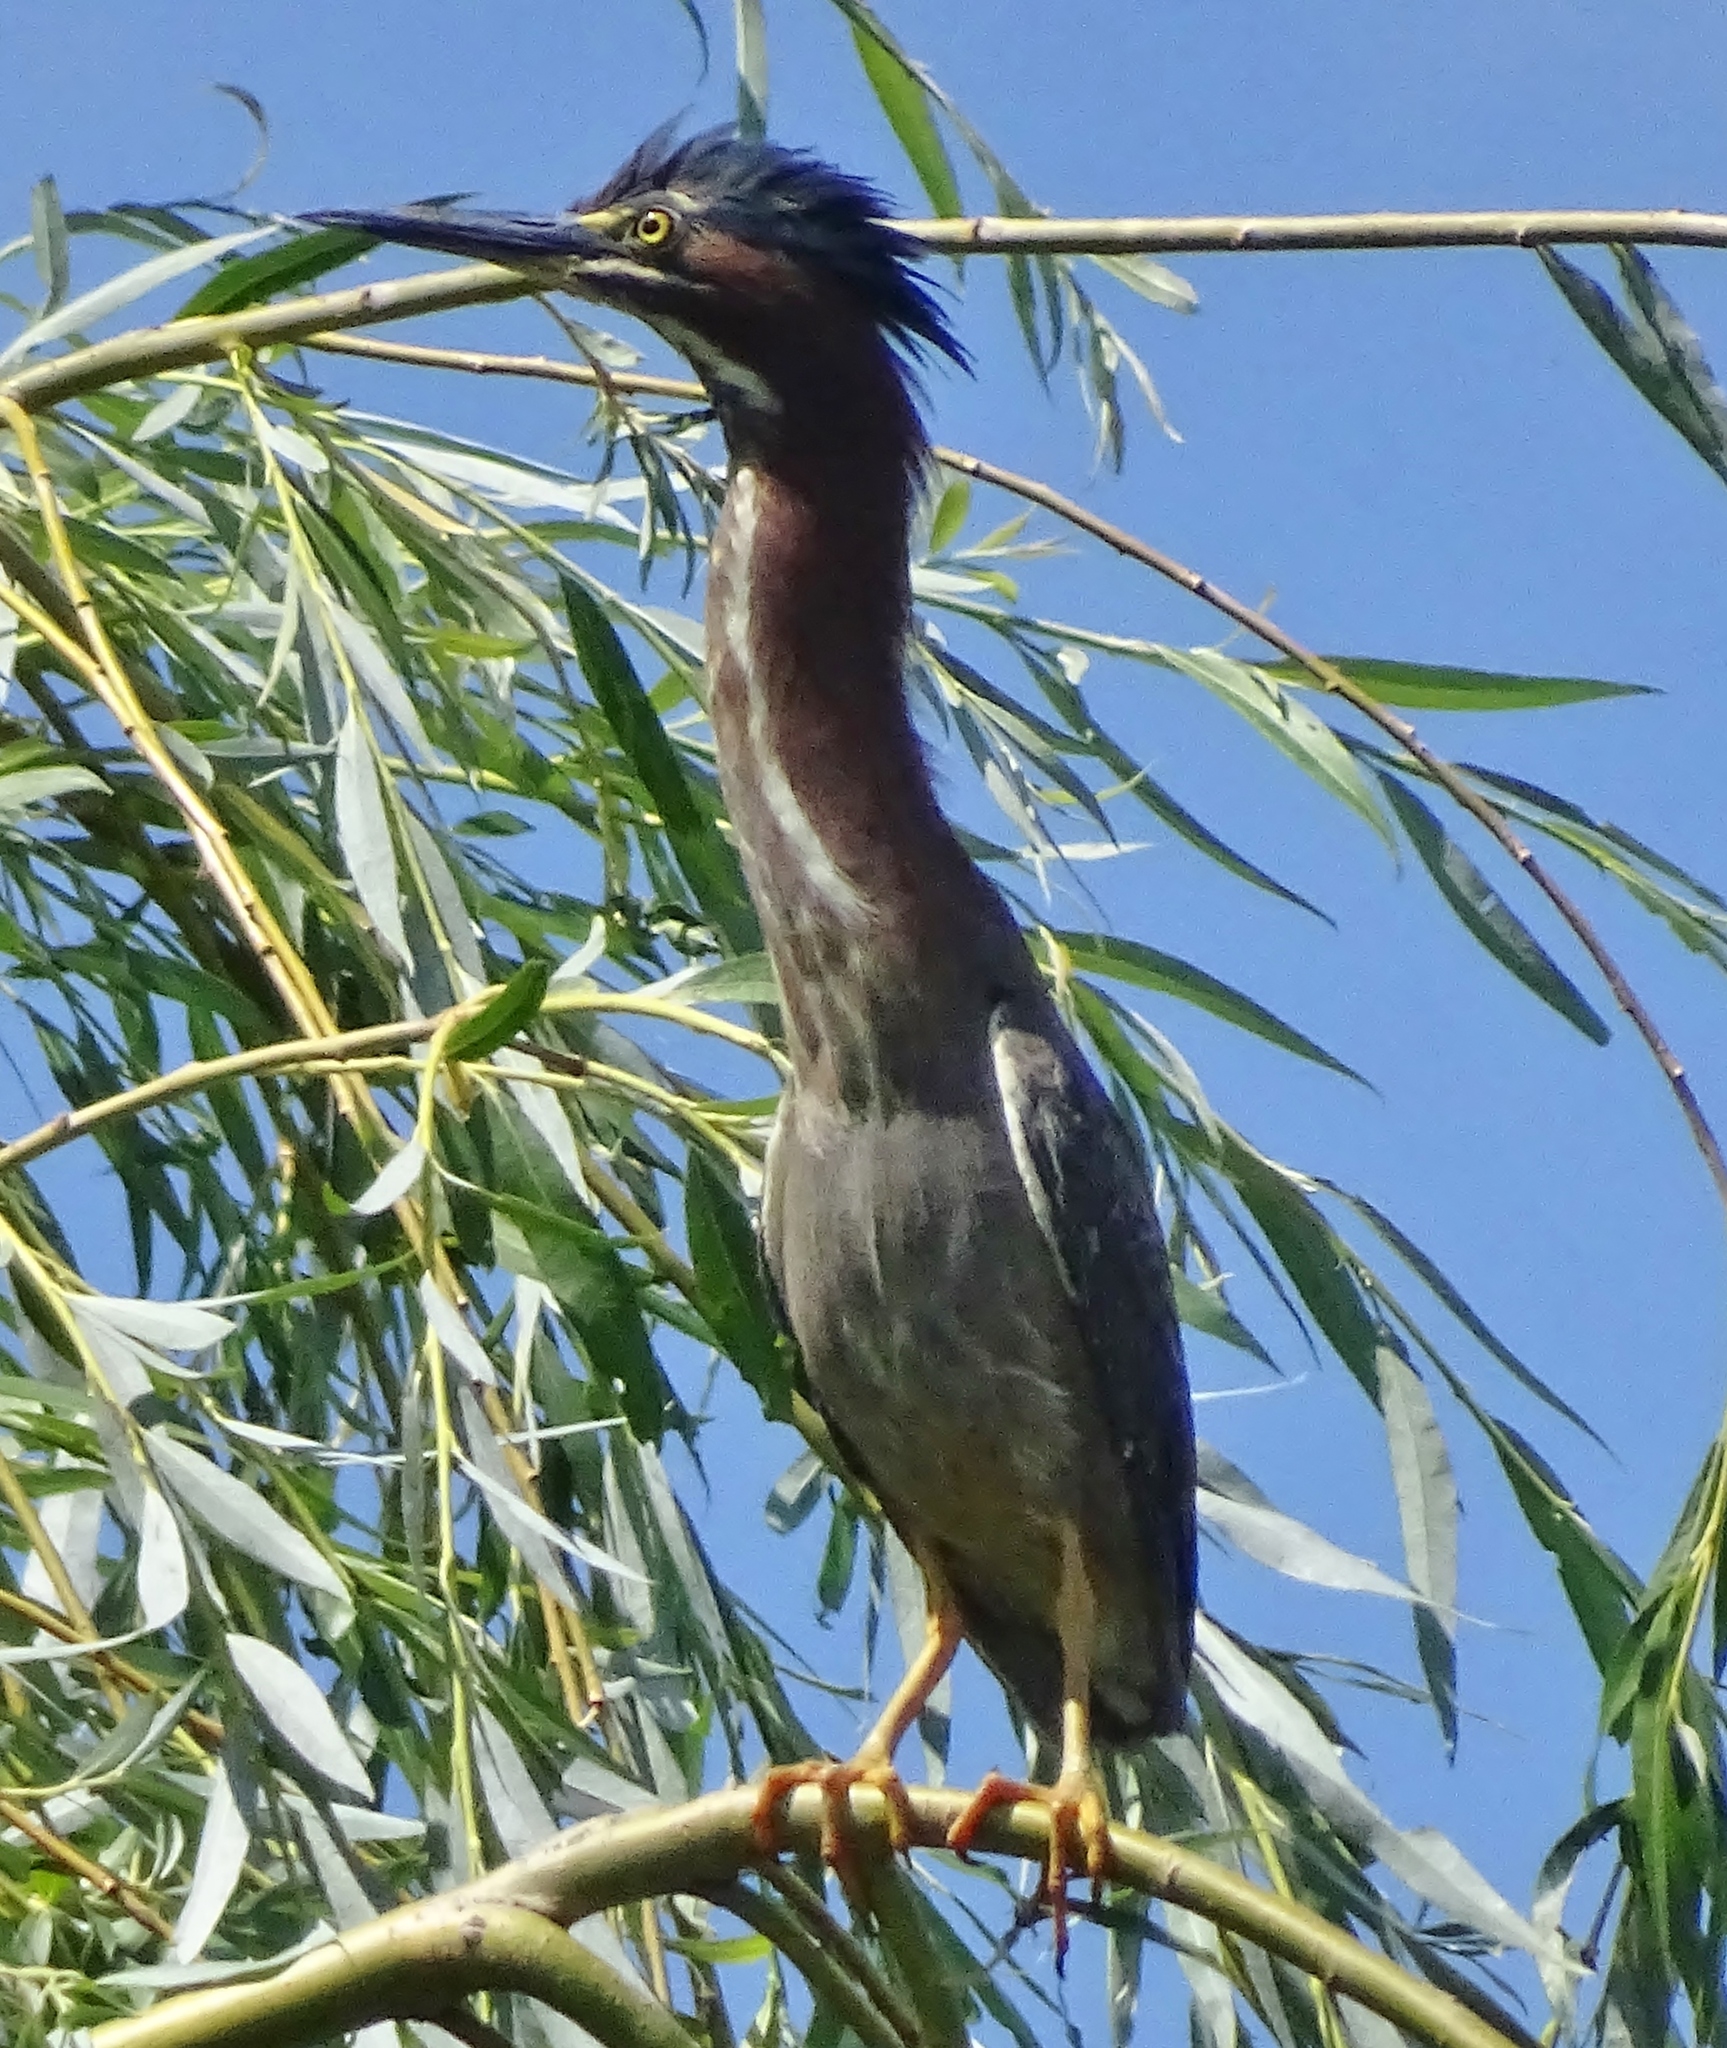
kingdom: Animalia
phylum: Chordata
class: Aves
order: Pelecaniformes
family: Ardeidae
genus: Butorides
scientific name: Butorides virescens
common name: Green heron
